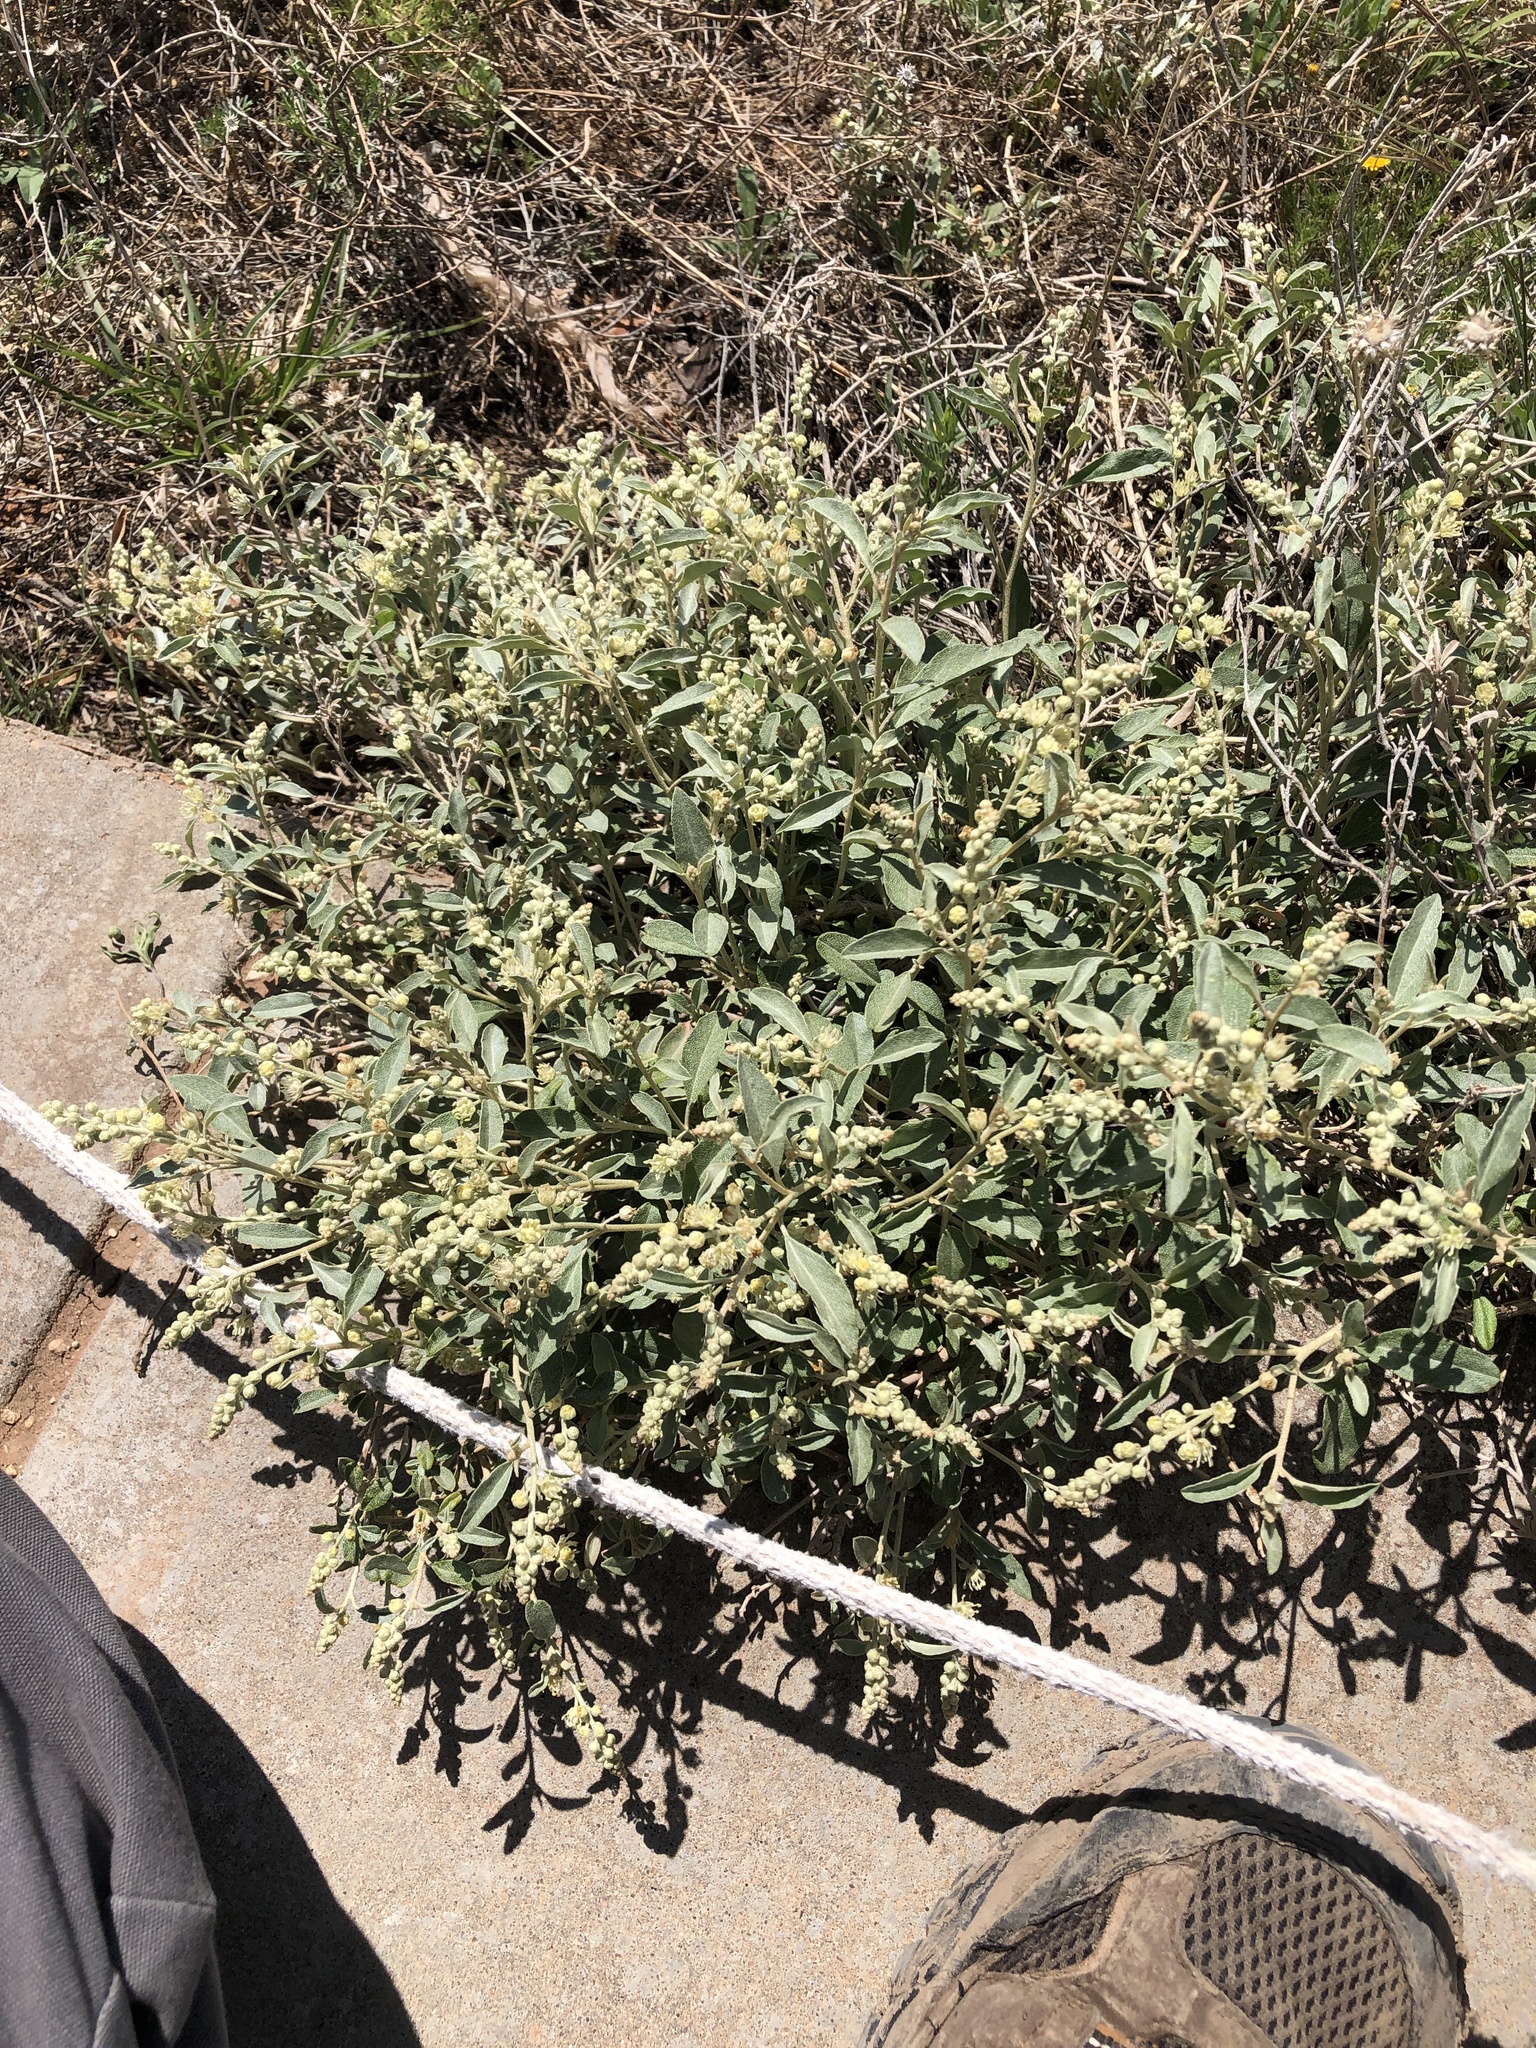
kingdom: Plantae
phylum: Tracheophyta
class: Magnoliopsida
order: Malpighiales
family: Euphorbiaceae
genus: Croton
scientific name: Croton dioicus
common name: Grassland croton
